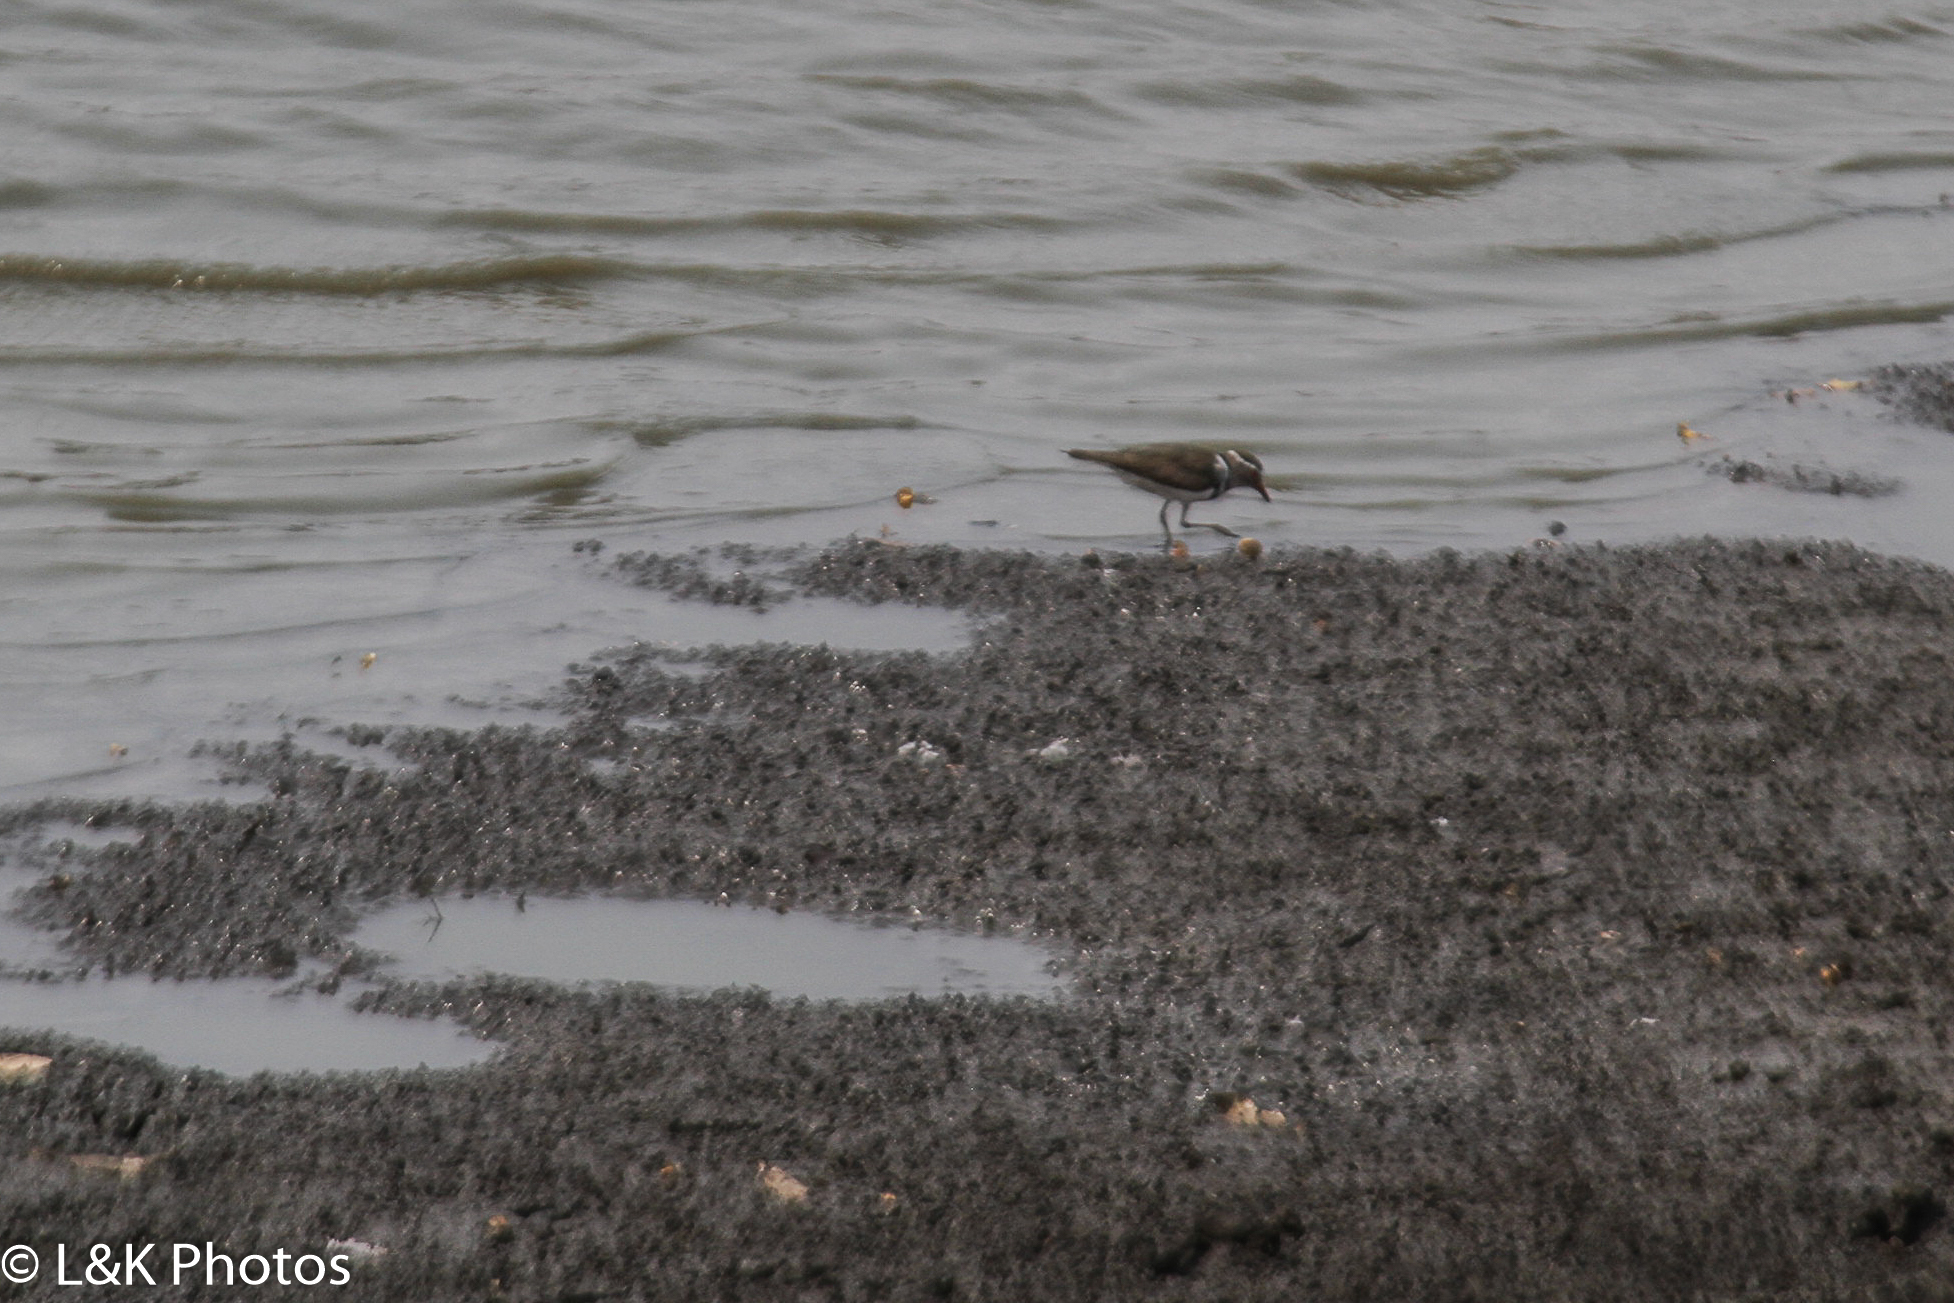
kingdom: Animalia
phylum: Chordata
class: Aves
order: Charadriiformes
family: Charadriidae
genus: Charadrius
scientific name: Charadrius tricollaris
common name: Three-banded plover
